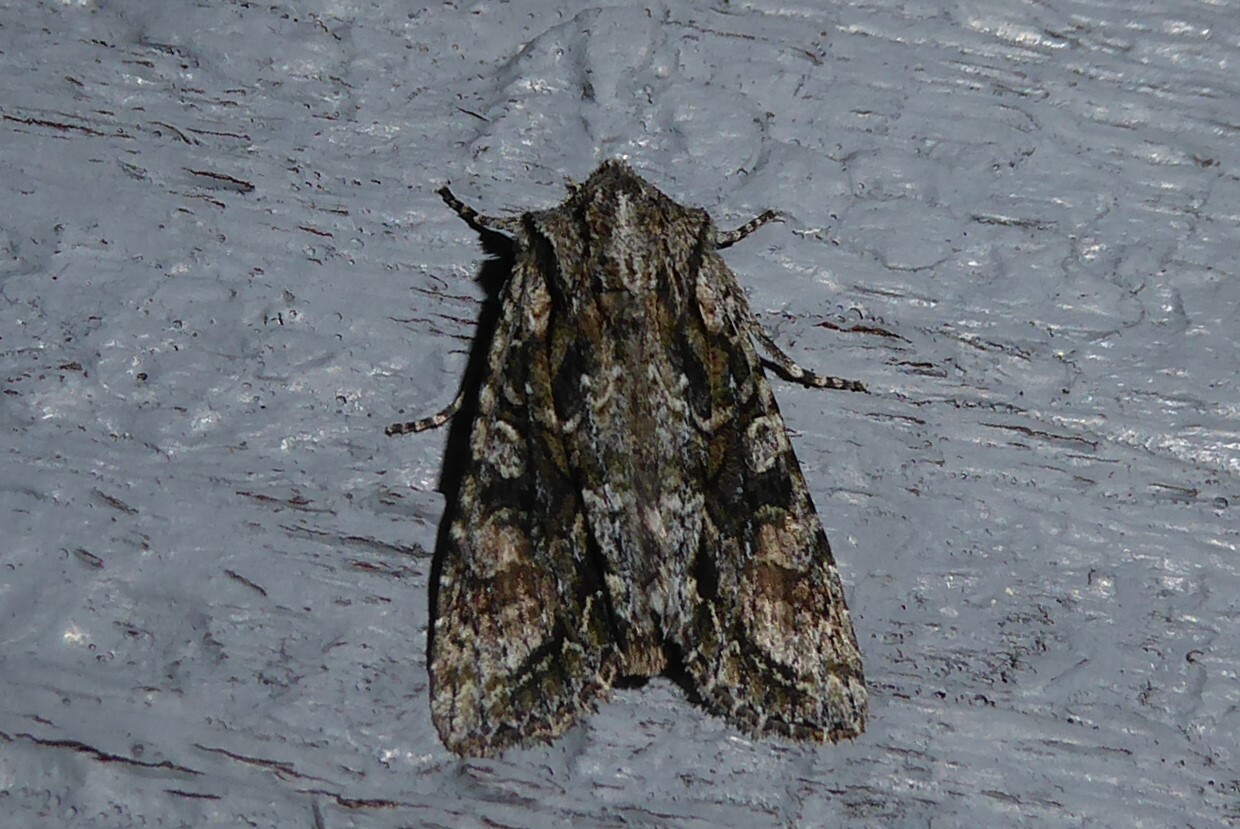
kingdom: Animalia
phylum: Arthropoda
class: Insecta
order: Lepidoptera
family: Noctuidae
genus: Ichneutica
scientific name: Ichneutica mutans
